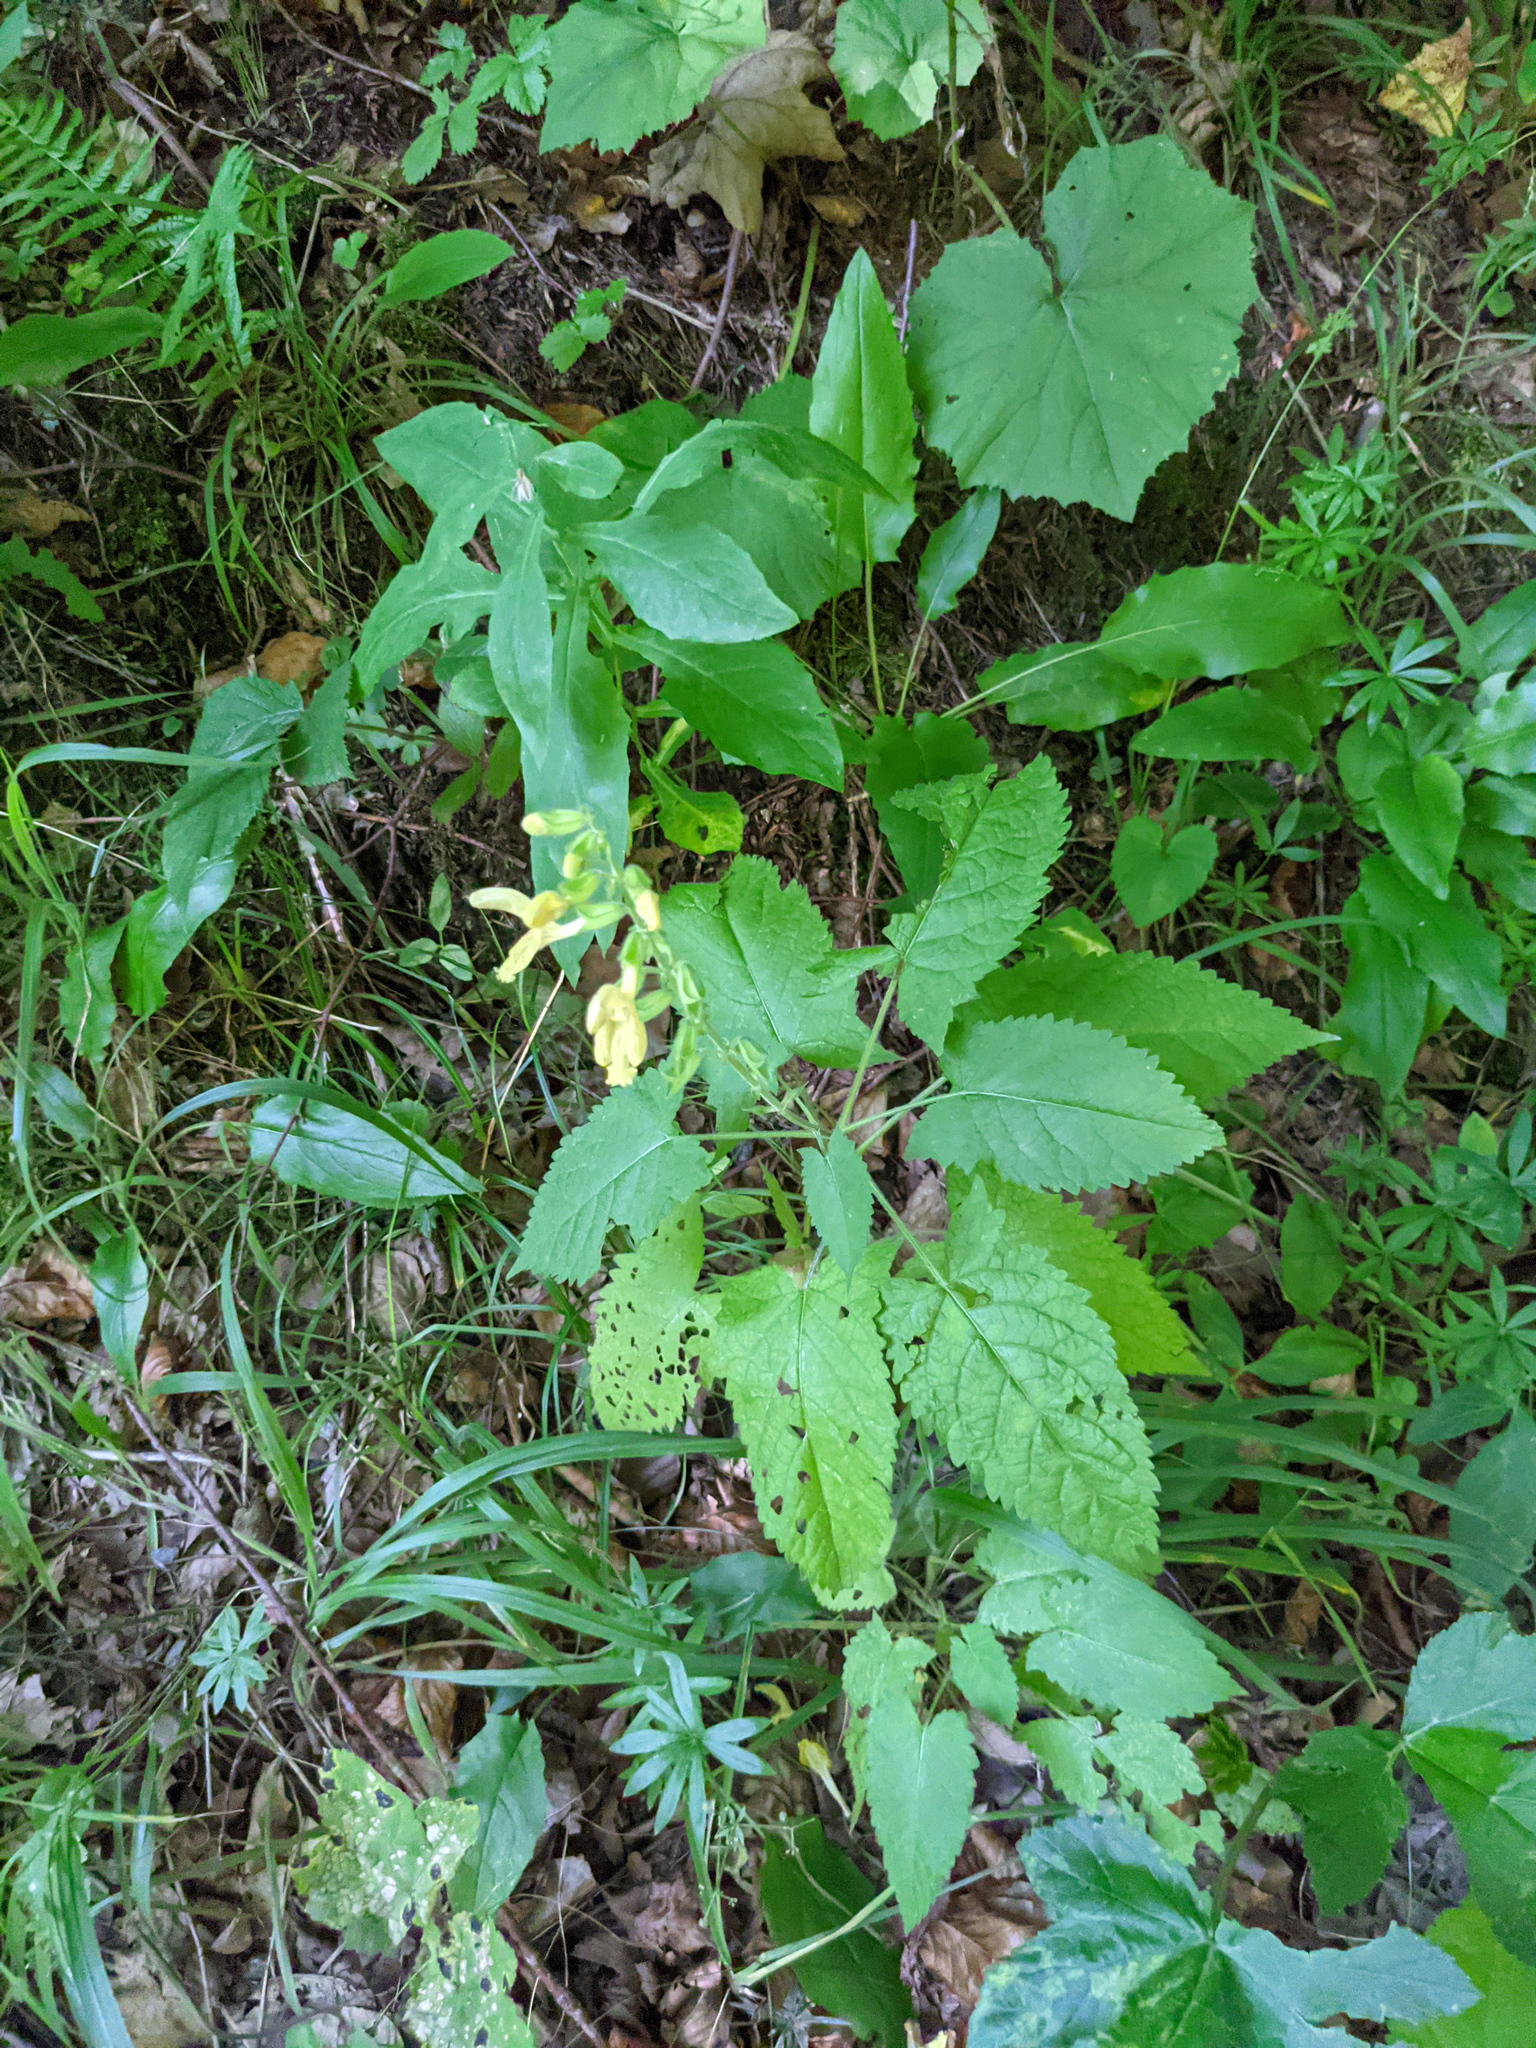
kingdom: Plantae
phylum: Tracheophyta
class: Magnoliopsida
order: Lamiales
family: Lamiaceae
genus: Salvia
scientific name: Salvia glutinosa
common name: Sticky clary
